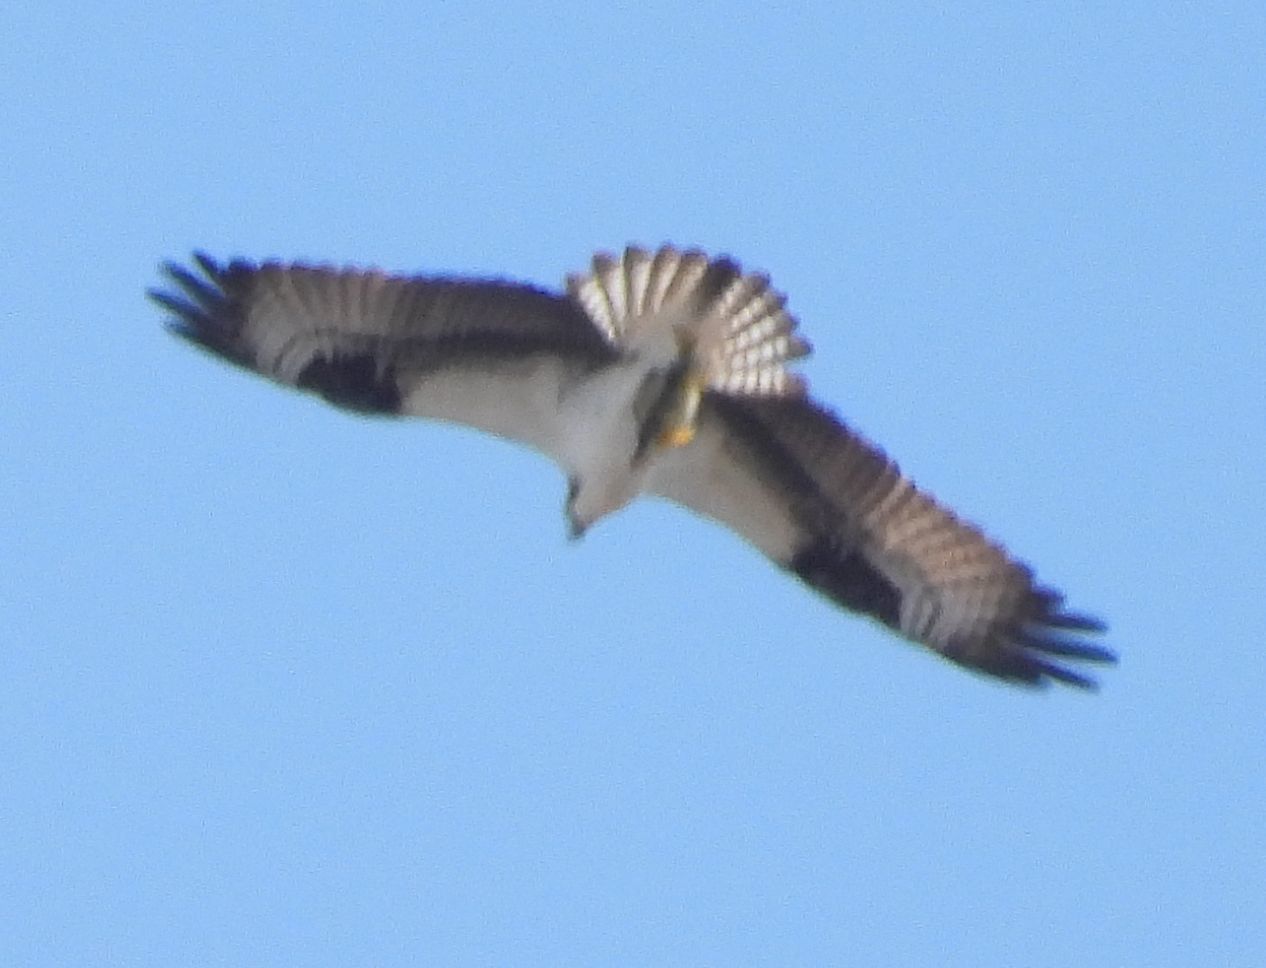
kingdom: Animalia
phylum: Chordata
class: Aves
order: Accipitriformes
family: Pandionidae
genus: Pandion
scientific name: Pandion haliaetus
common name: Osprey
